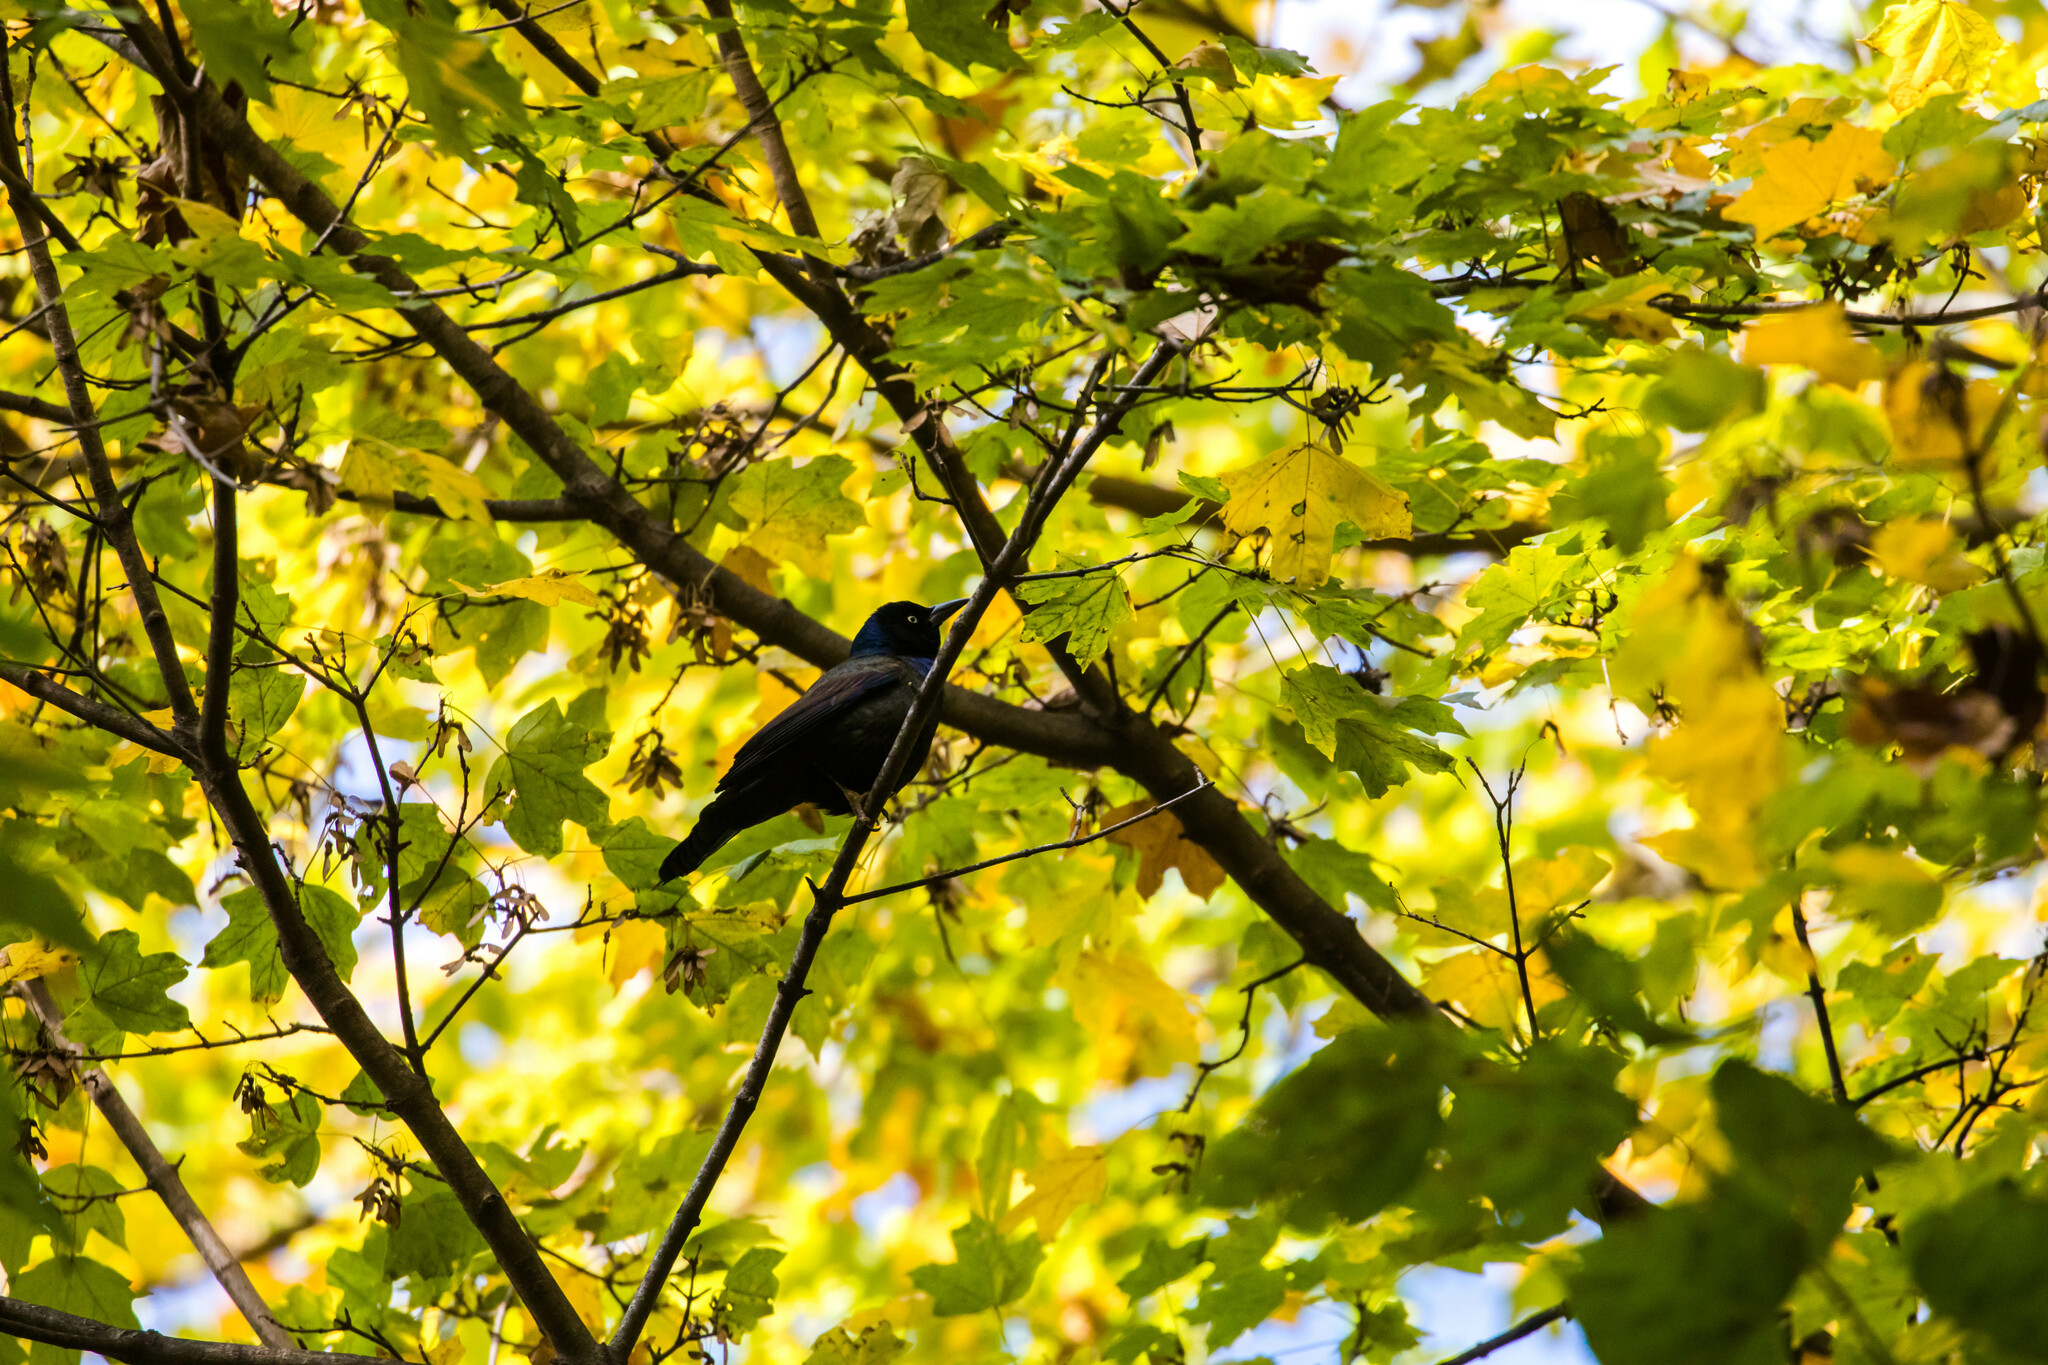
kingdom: Animalia
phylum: Chordata
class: Aves
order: Passeriformes
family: Icteridae
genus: Quiscalus
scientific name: Quiscalus quiscula
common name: Common grackle
